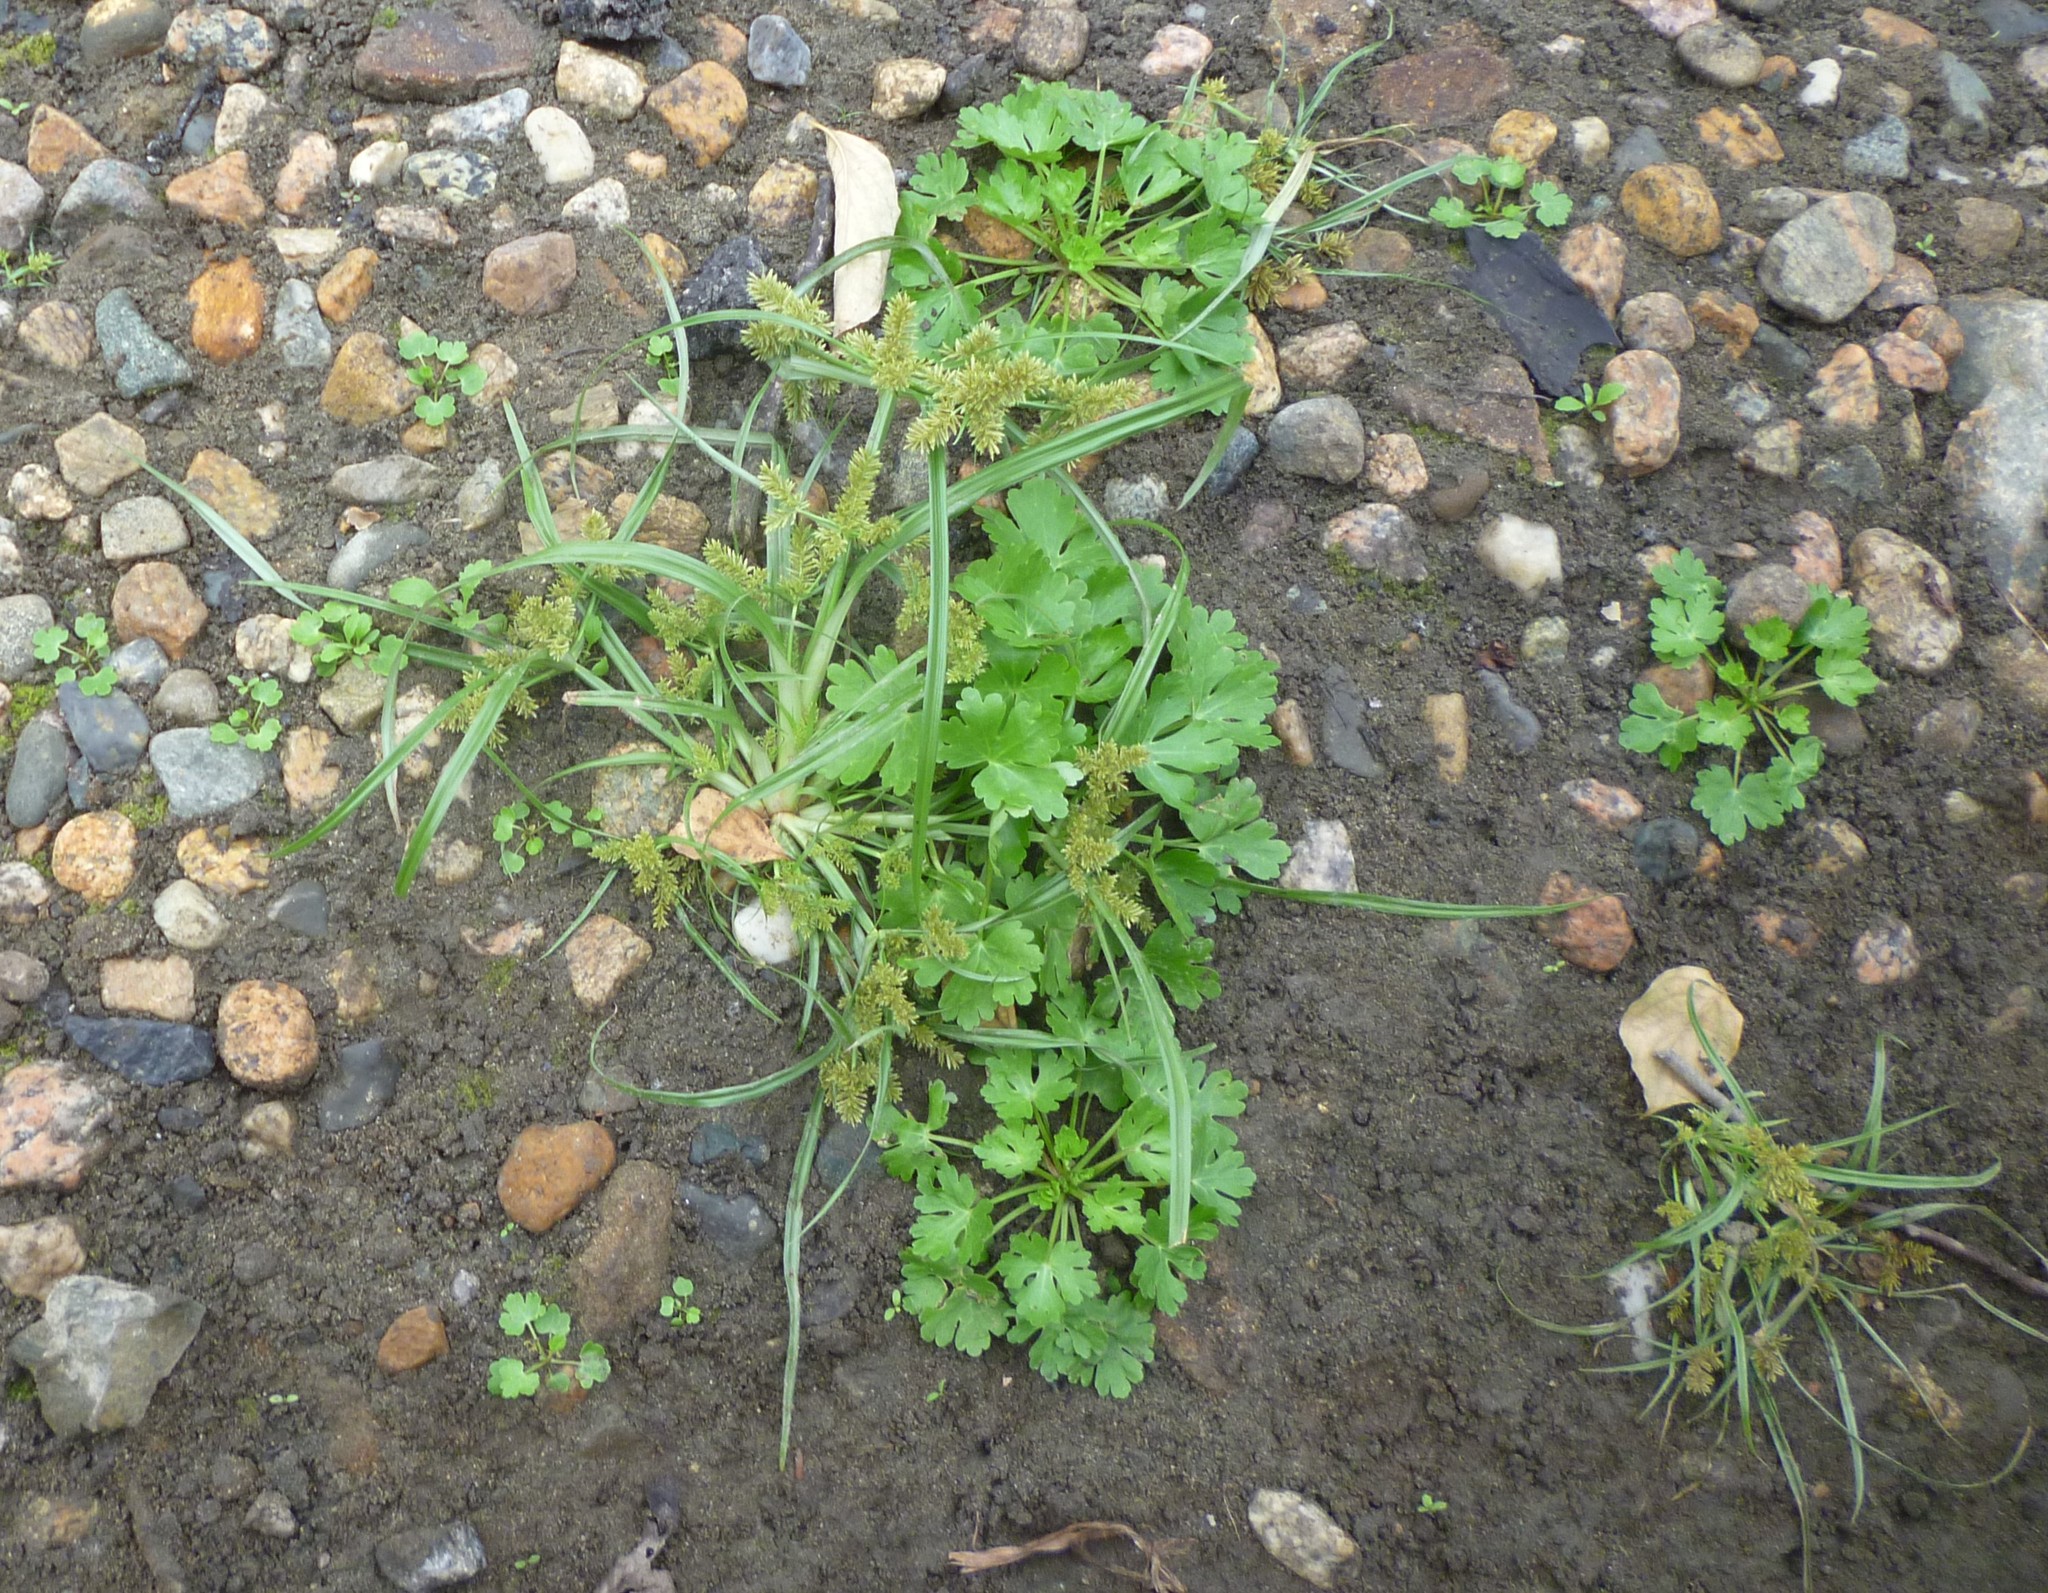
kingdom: Plantae
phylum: Tracheophyta
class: Magnoliopsida
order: Ranunculales
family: Ranunculaceae
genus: Ranunculus
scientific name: Ranunculus sceleratus
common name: Celery-leaved buttercup
